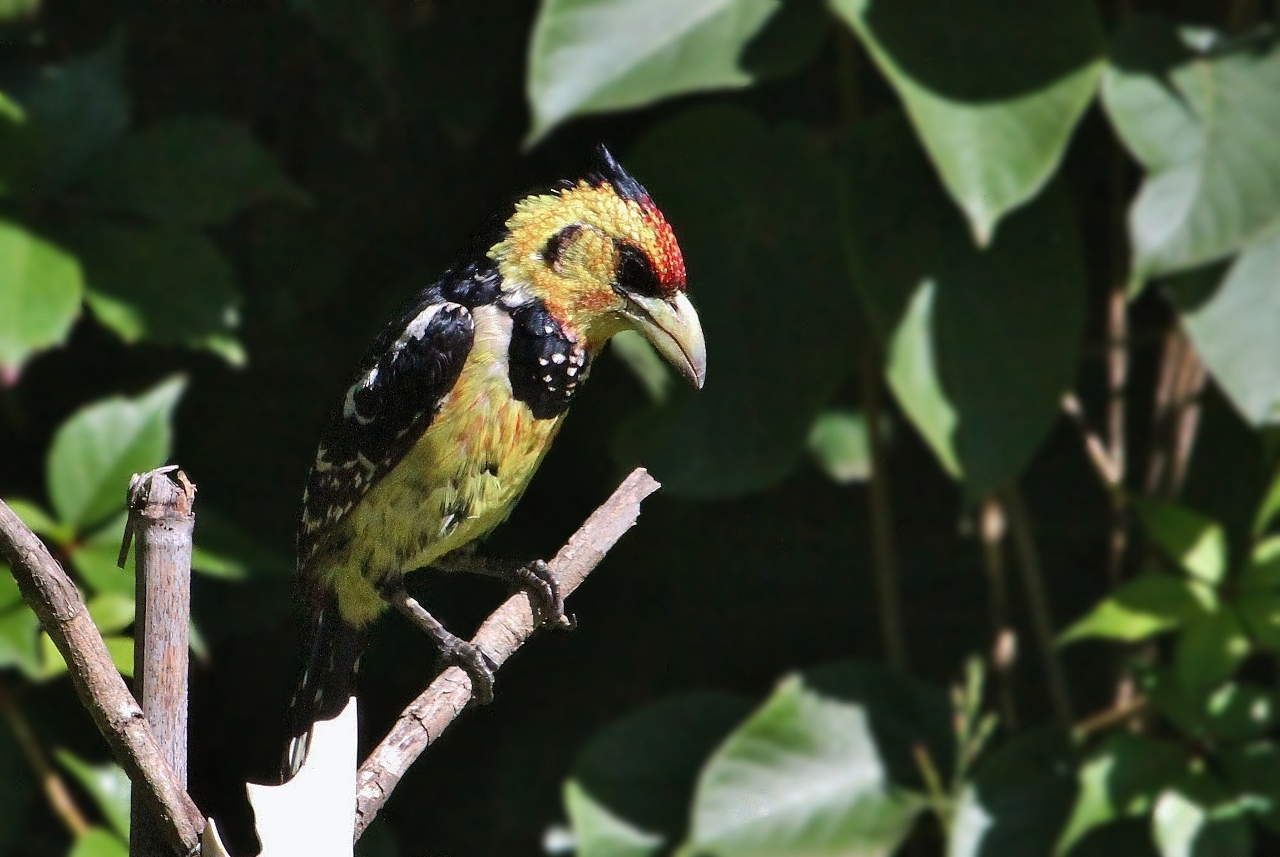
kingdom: Animalia
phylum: Chordata
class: Aves
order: Piciformes
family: Lybiidae
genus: Trachyphonus
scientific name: Trachyphonus vaillantii
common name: Crested barbet
